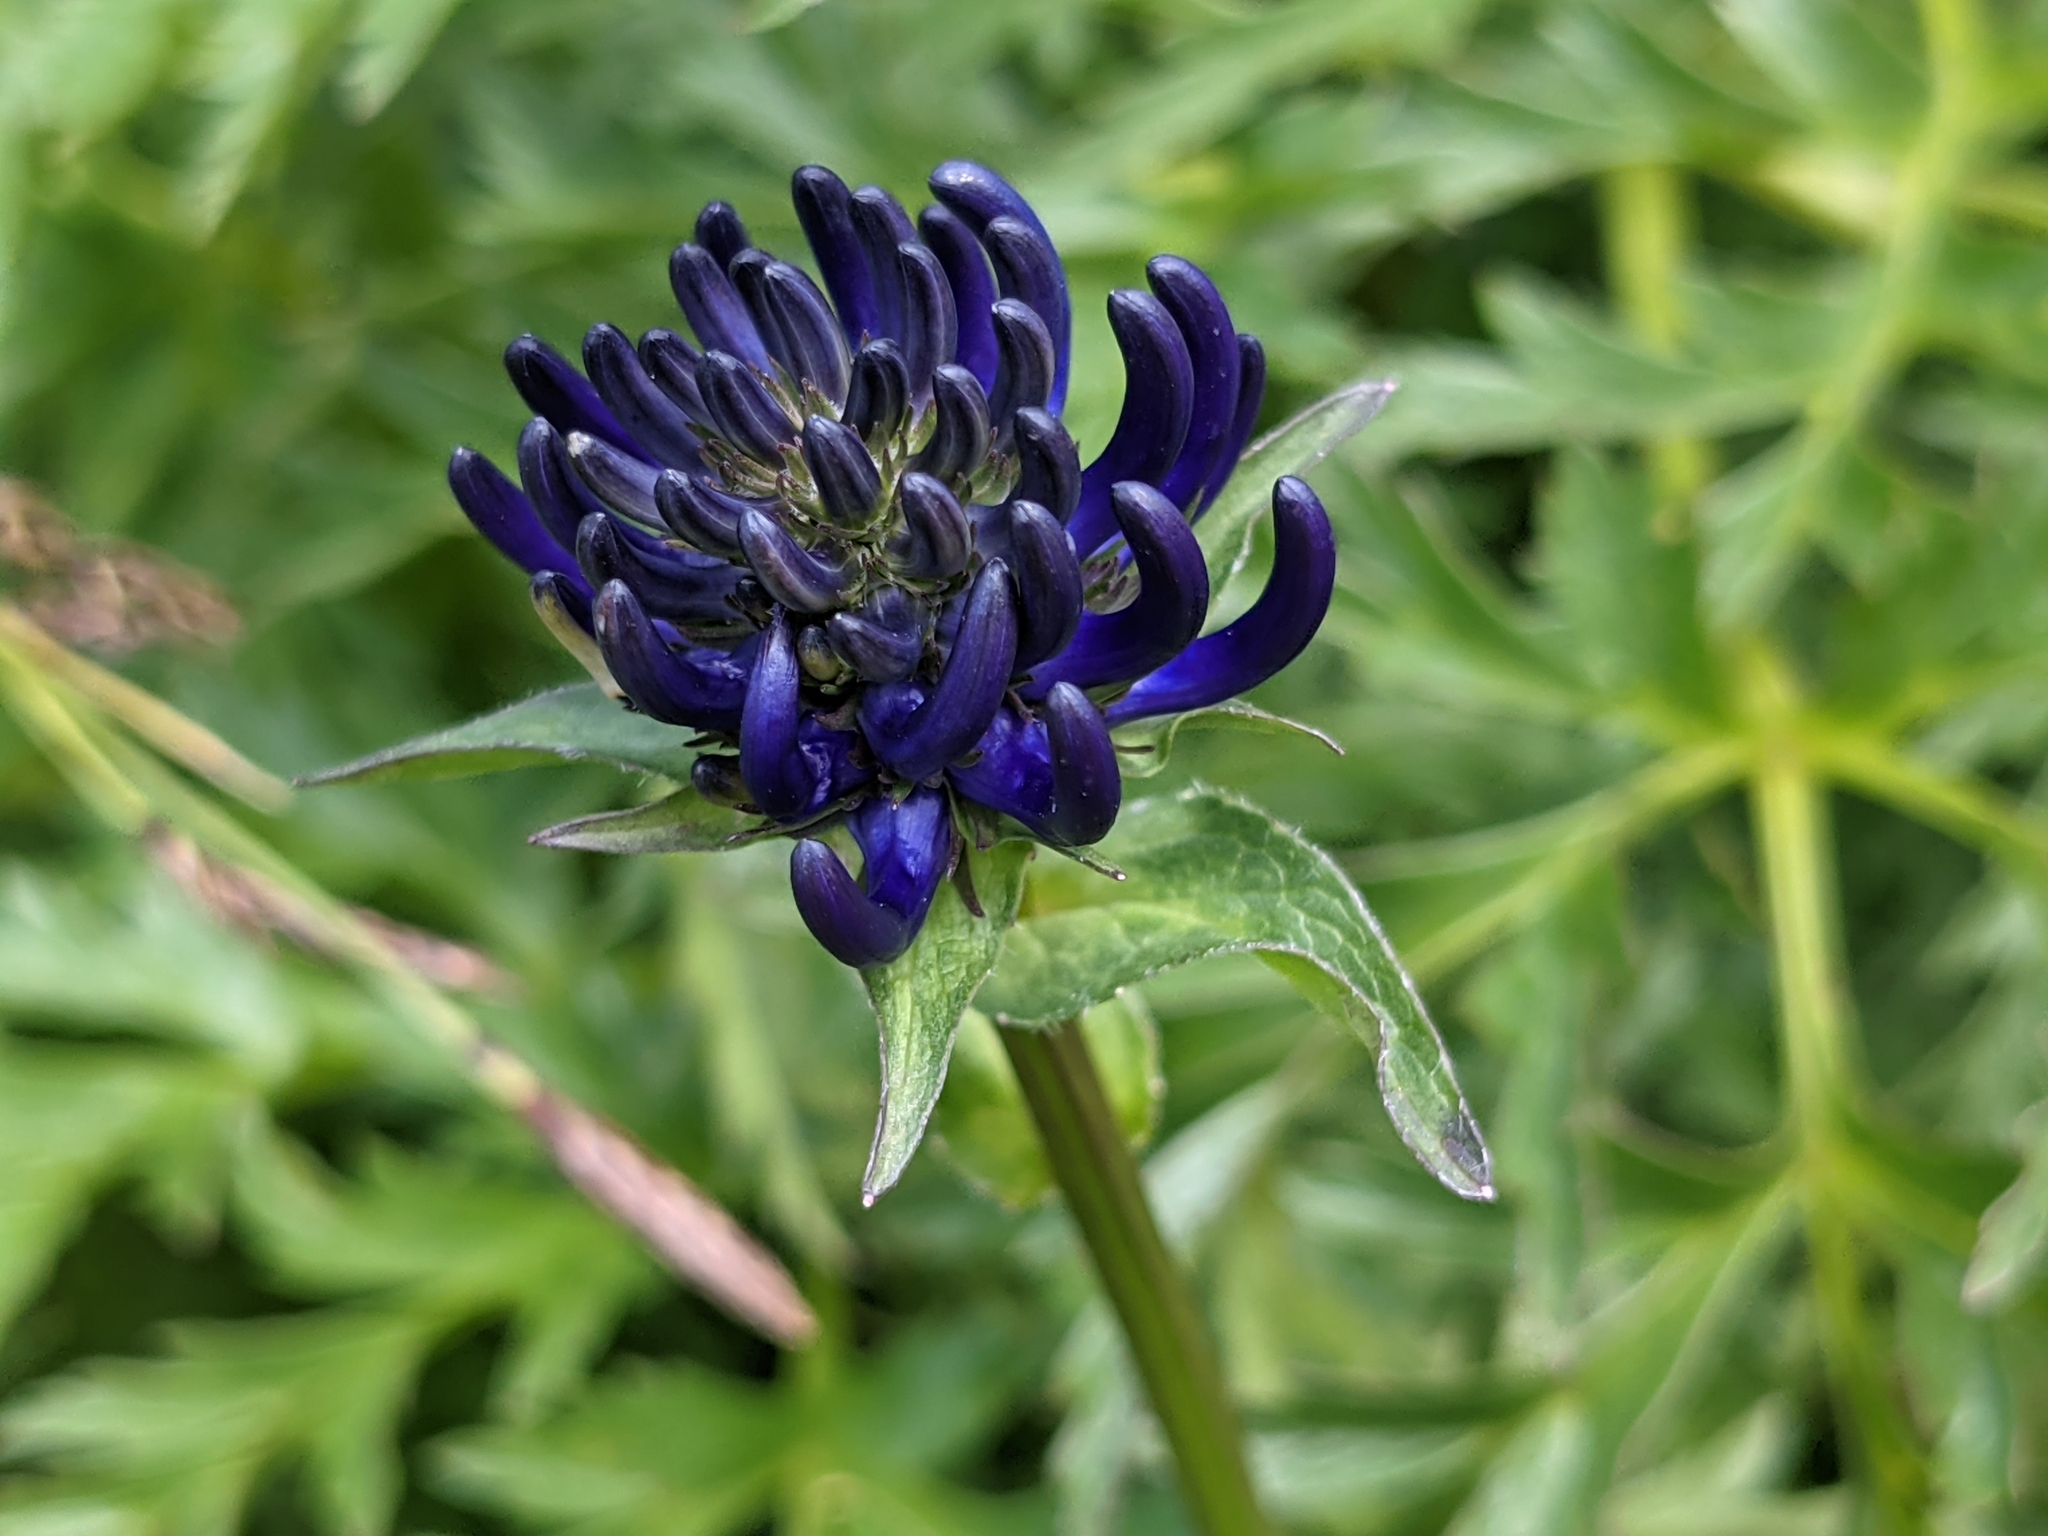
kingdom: Plantae
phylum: Tracheophyta
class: Magnoliopsida
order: Asterales
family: Campanulaceae
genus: Phyteuma
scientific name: Phyteuma orbiculare
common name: Round-headed rampion
